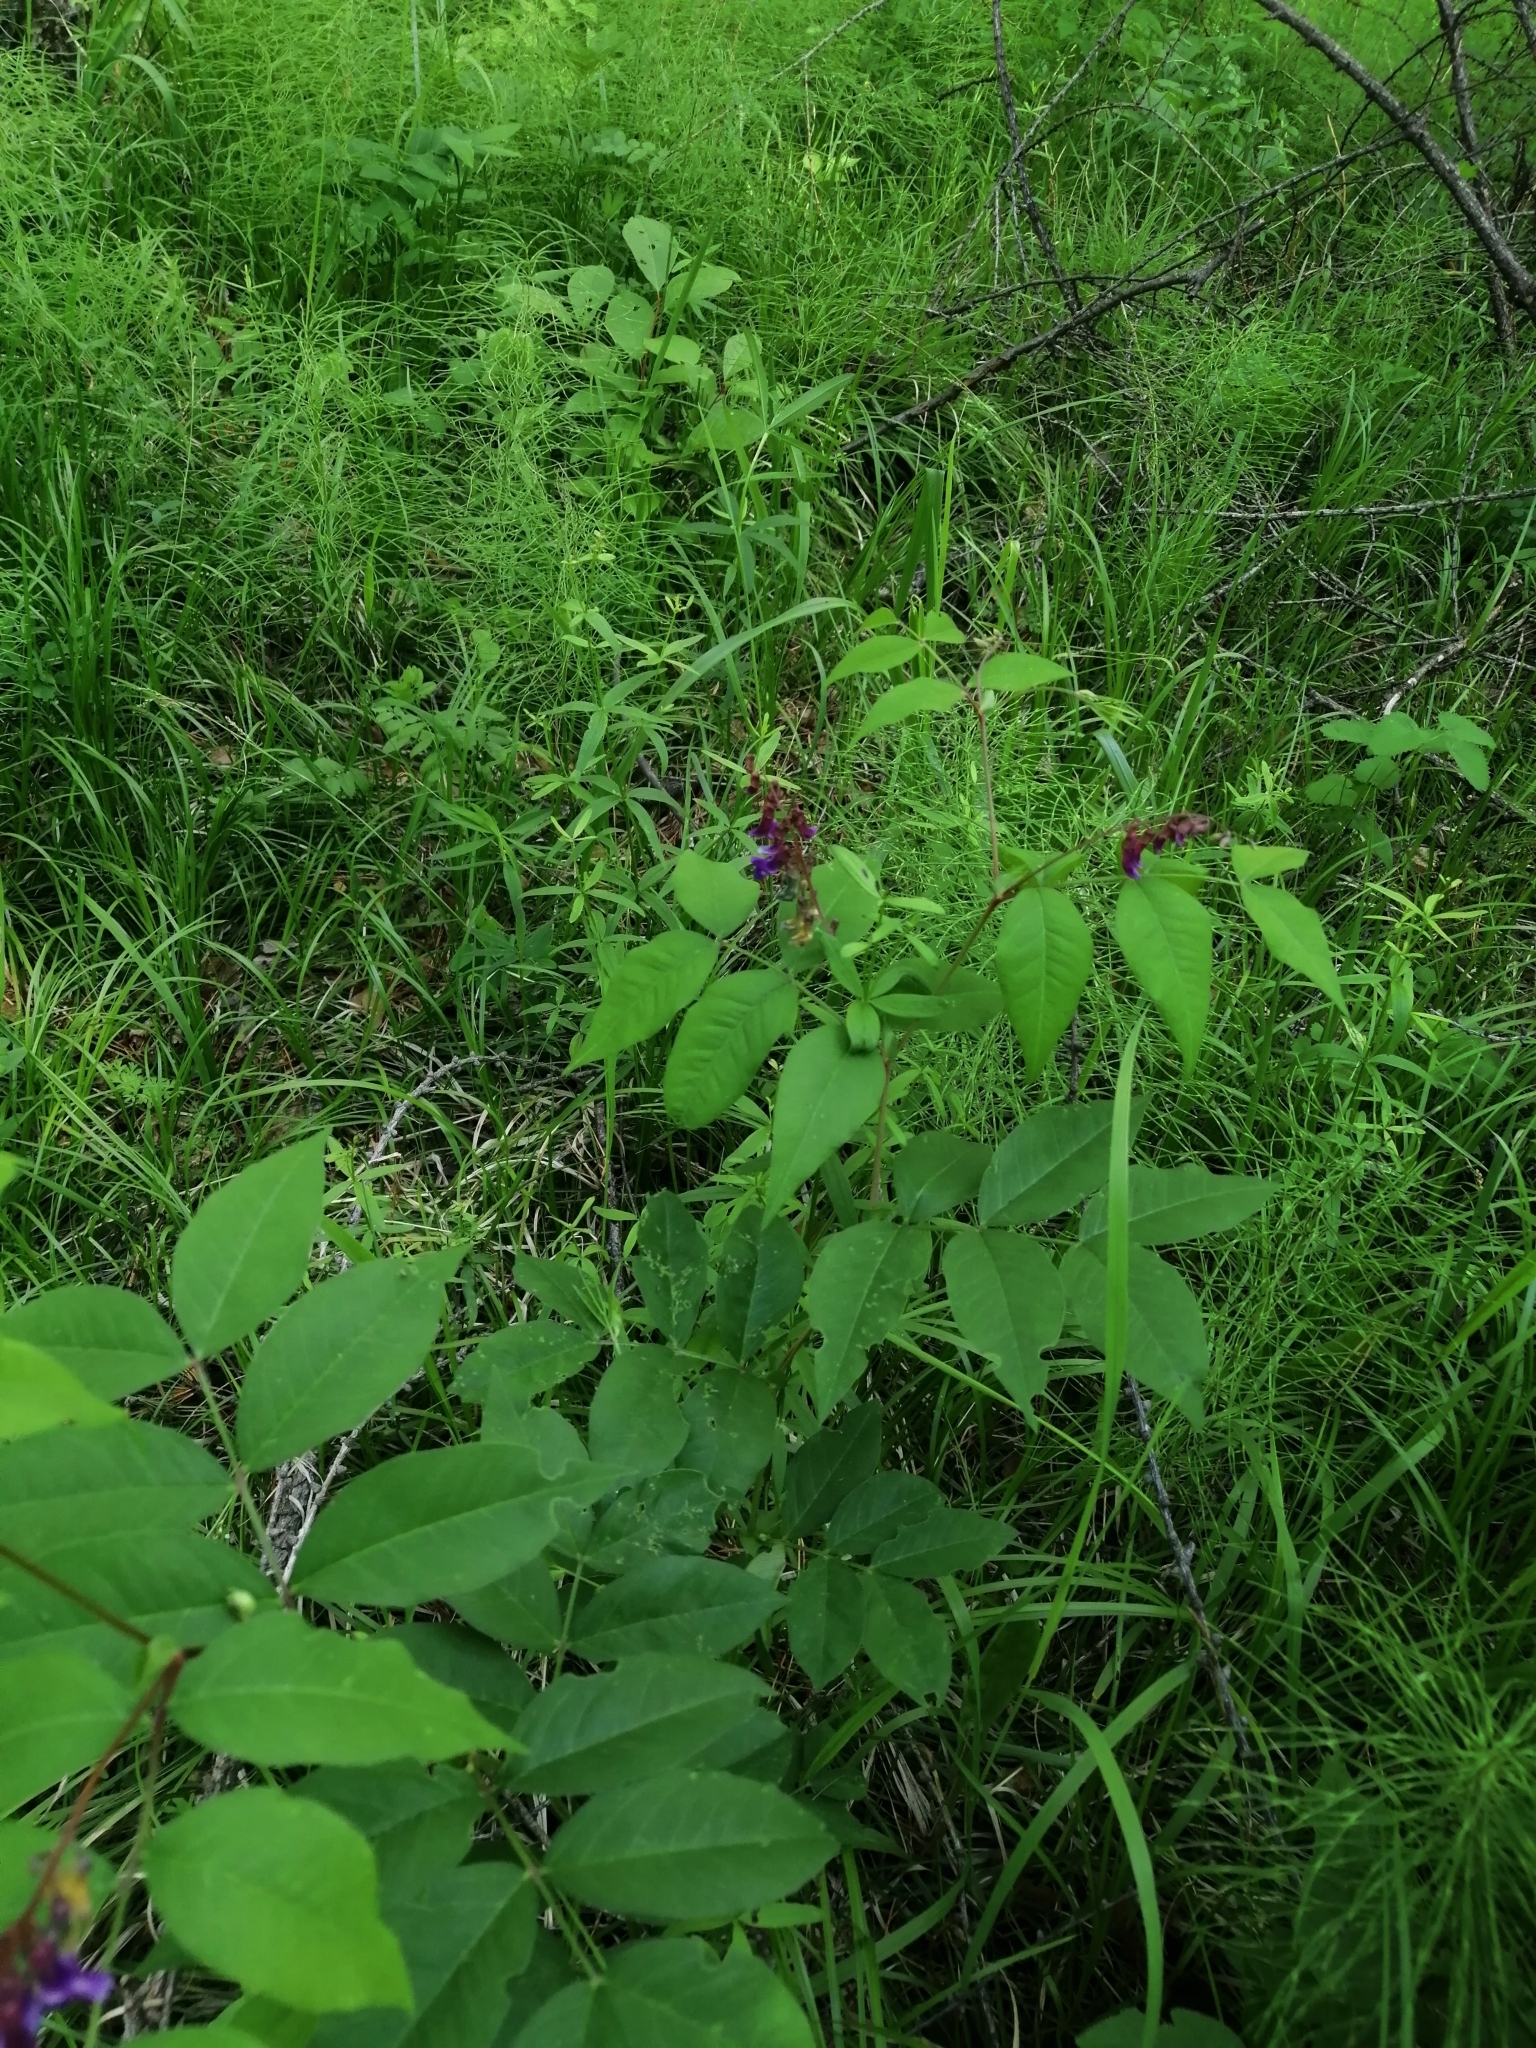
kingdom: Plantae
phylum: Tracheophyta
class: Magnoliopsida
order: Fabales
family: Fabaceae
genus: Vicia
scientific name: Vicia ramuliflora
